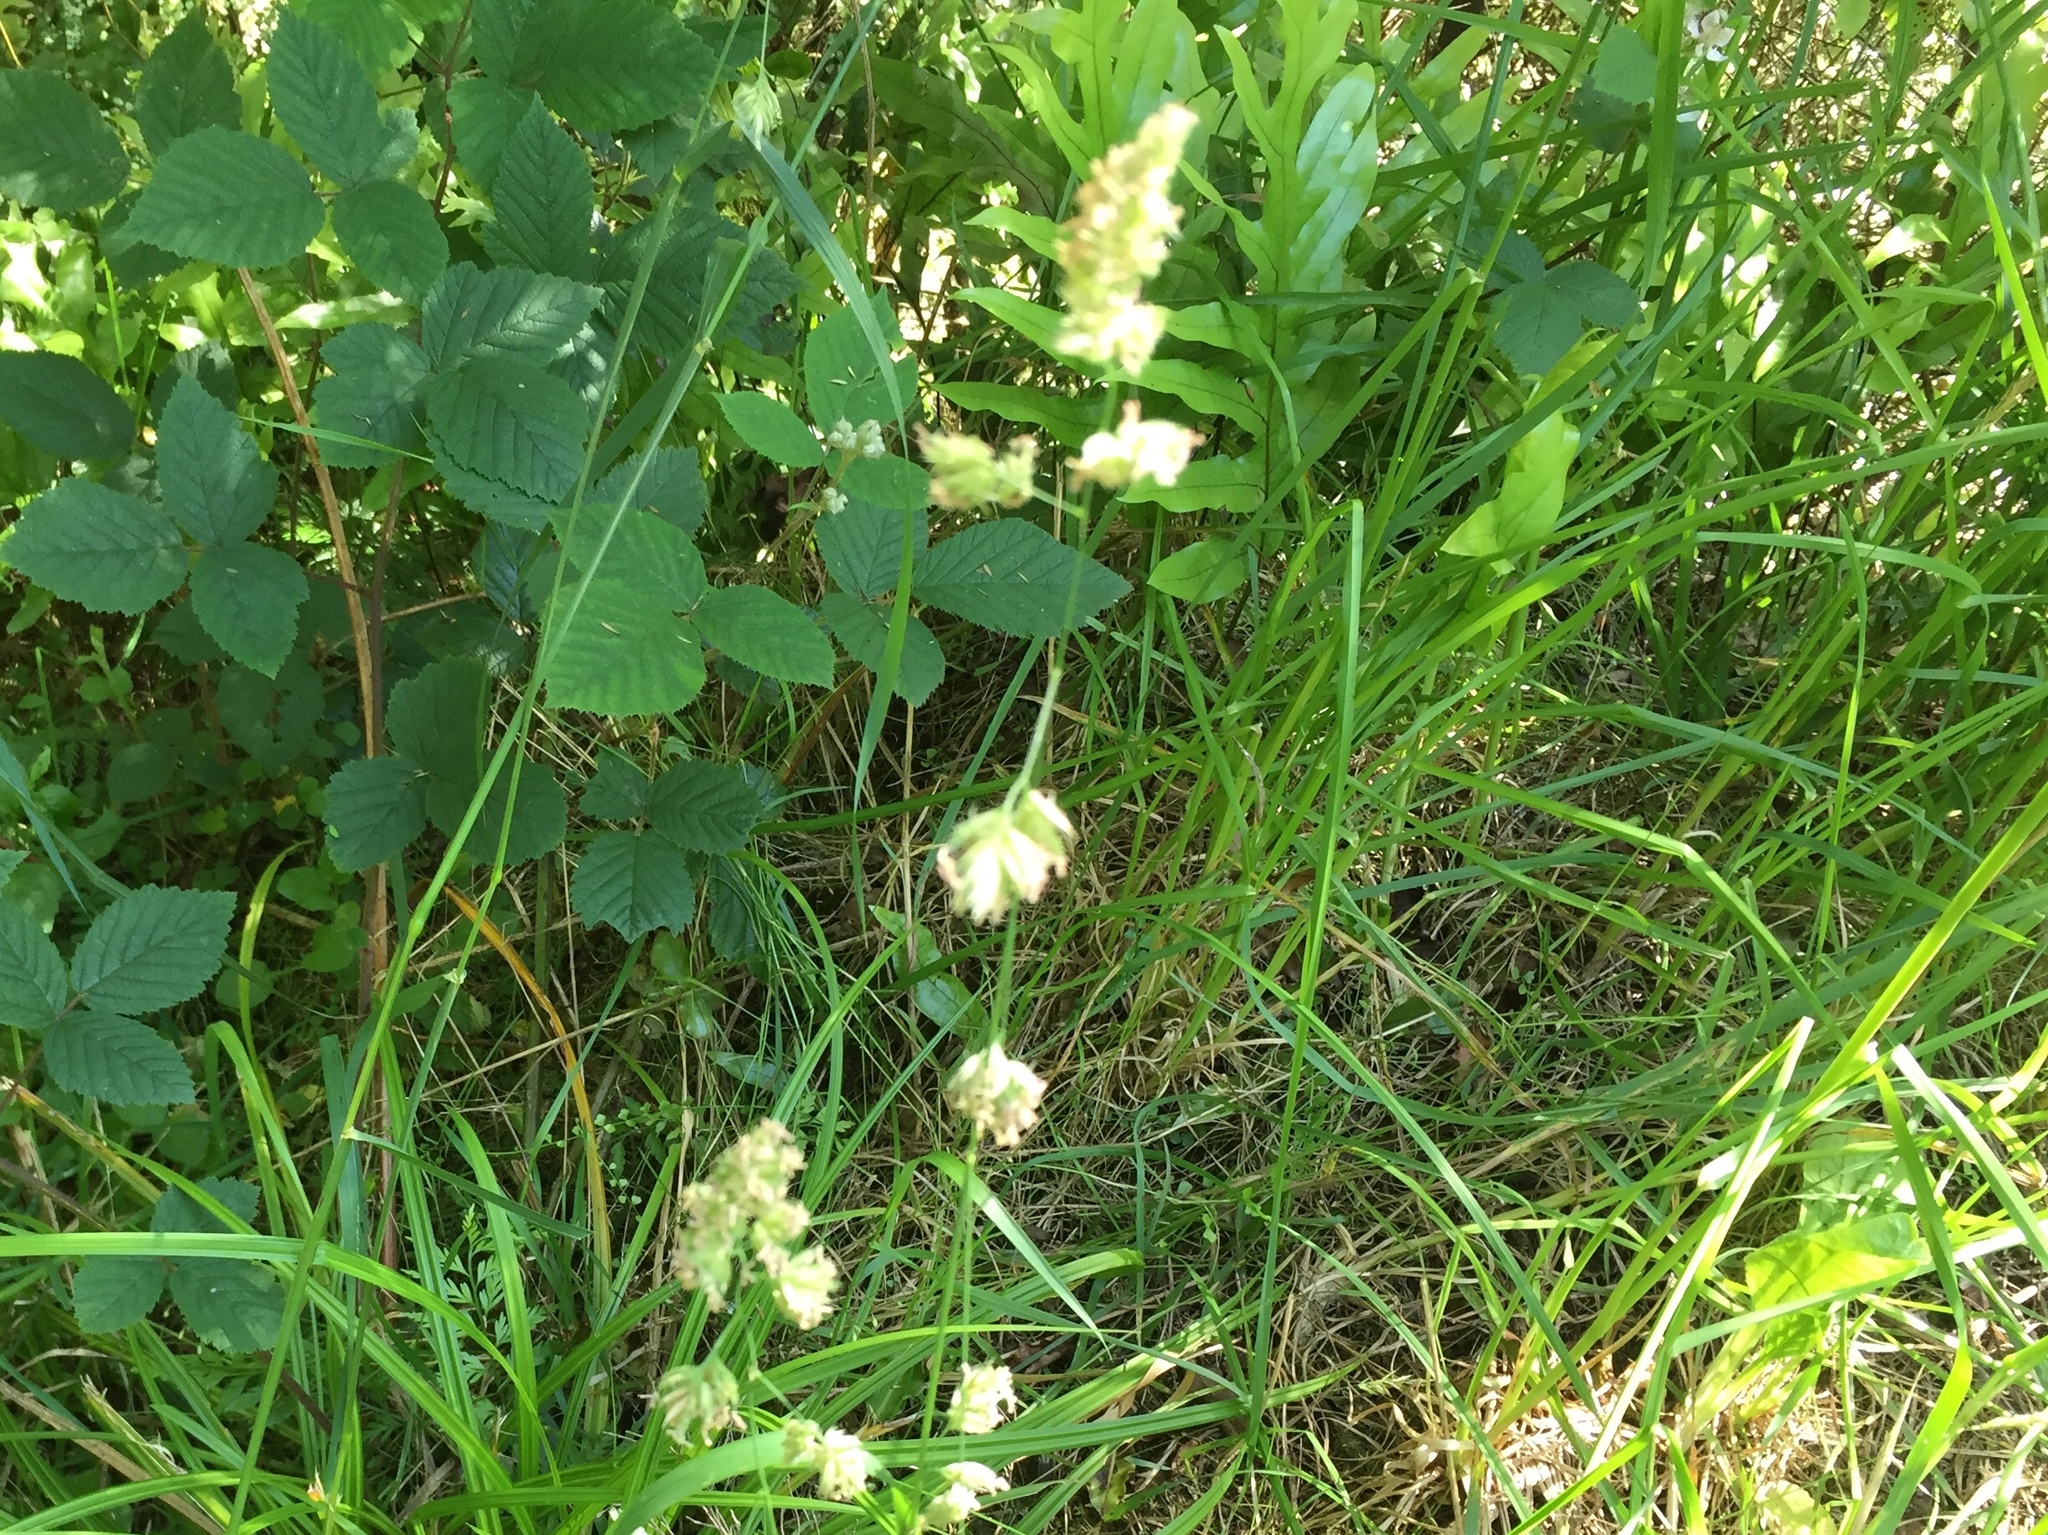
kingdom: Plantae
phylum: Tracheophyta
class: Liliopsida
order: Poales
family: Poaceae
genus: Dactylis
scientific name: Dactylis glomerata
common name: Orchardgrass
